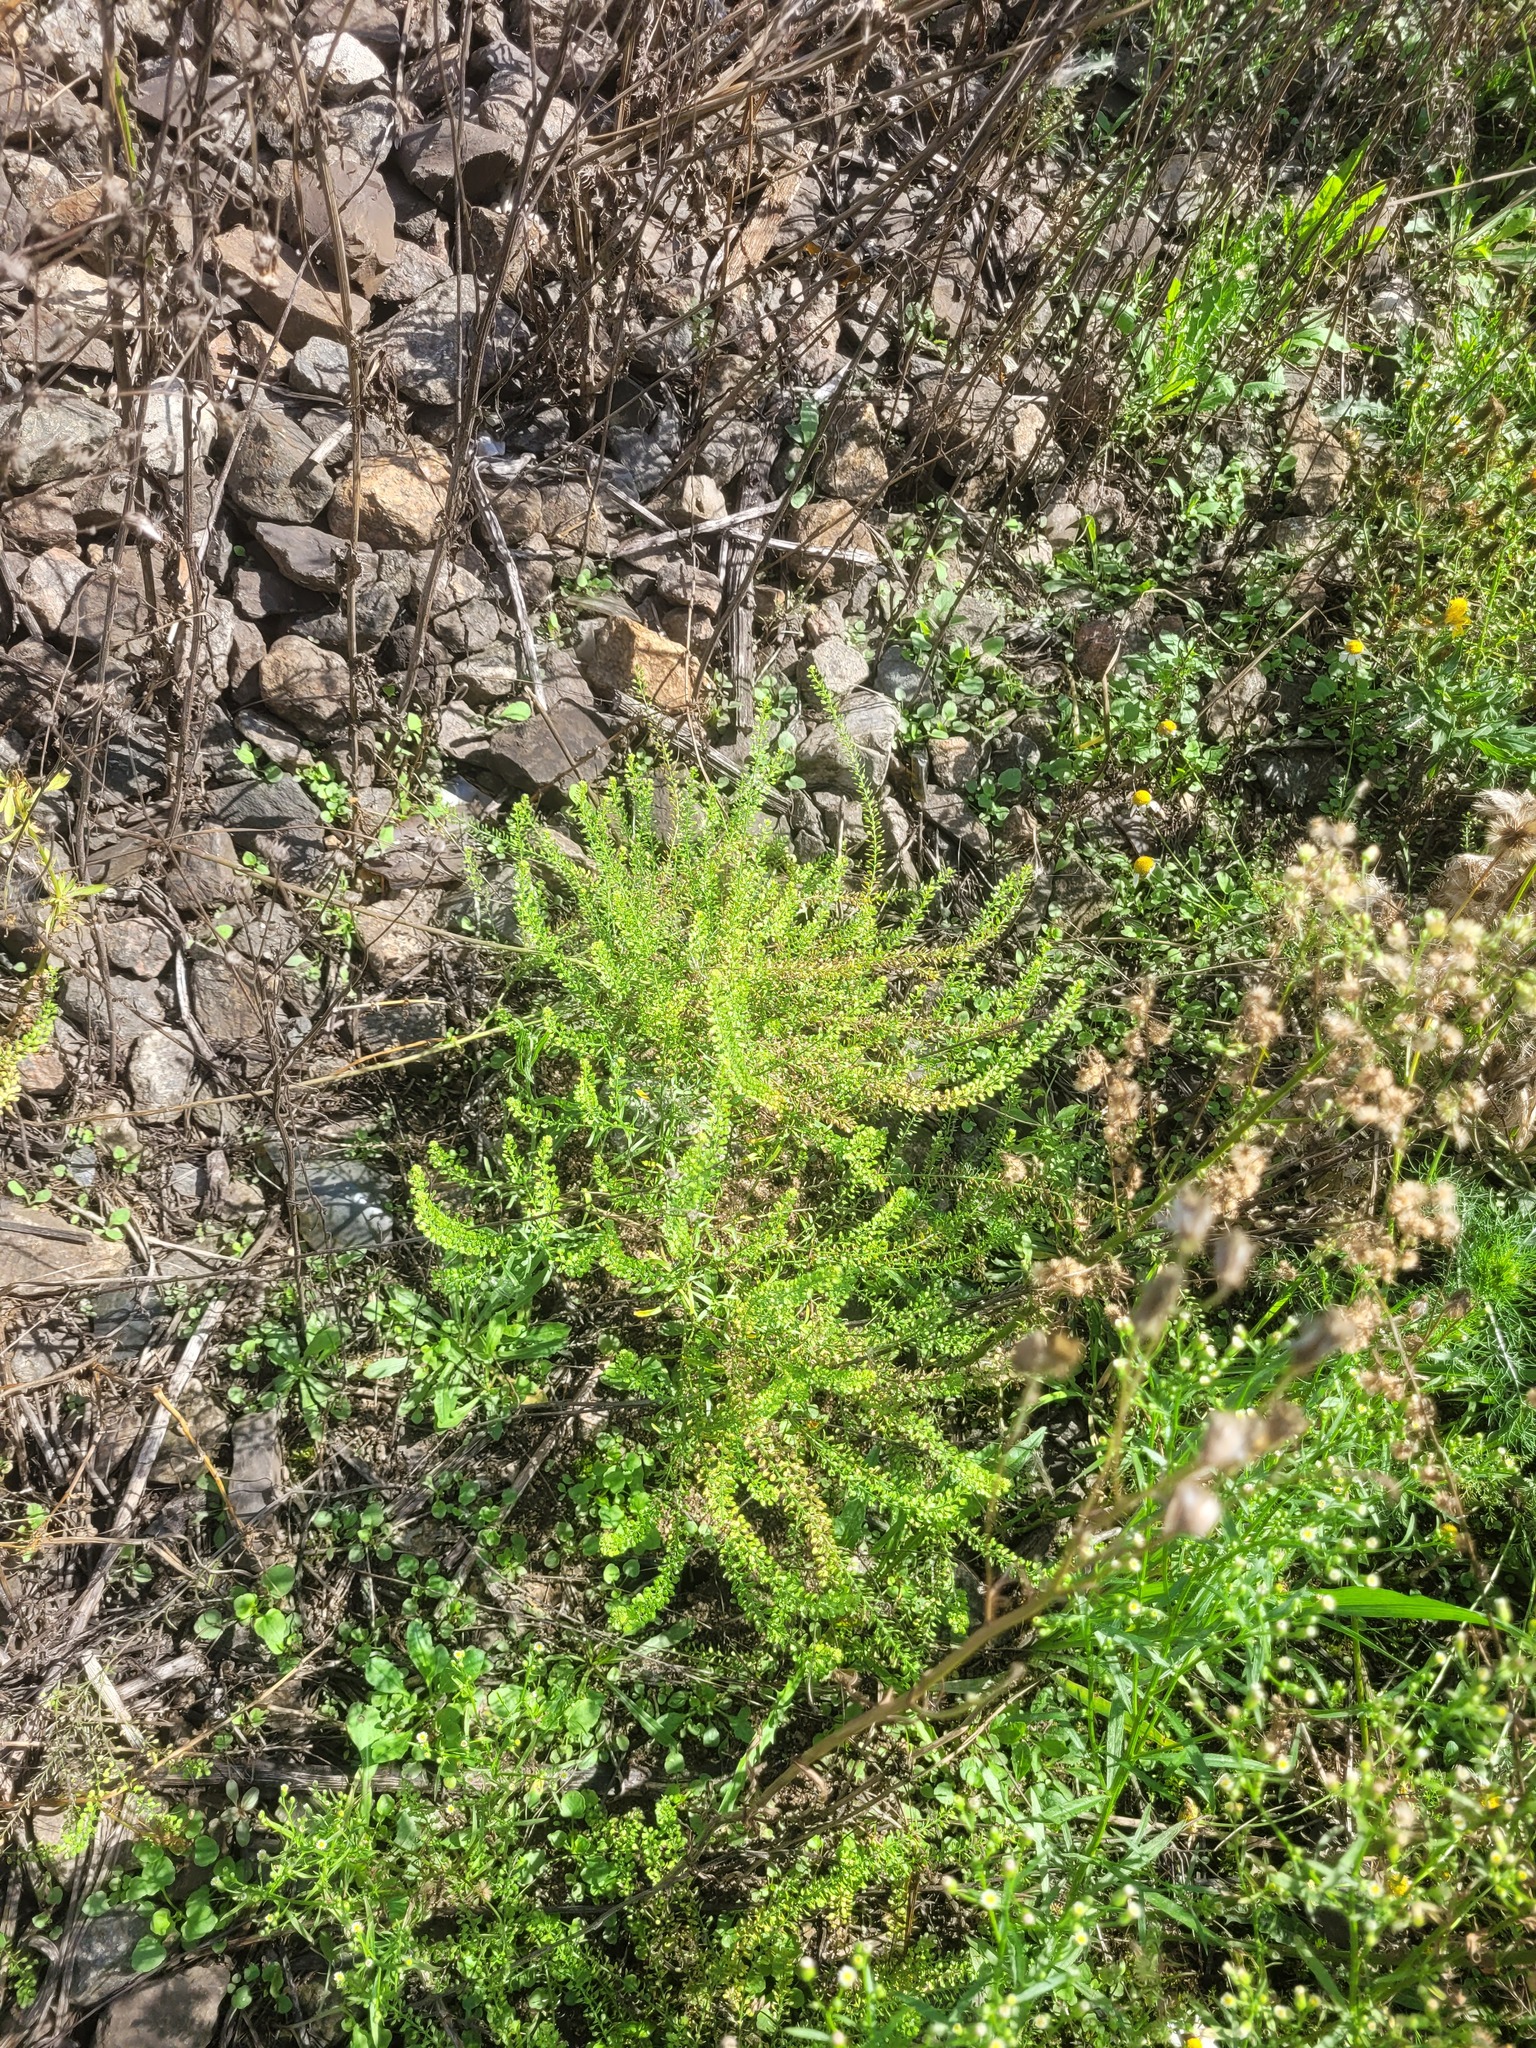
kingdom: Plantae
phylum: Tracheophyta
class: Magnoliopsida
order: Brassicales
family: Brassicaceae
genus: Lepidium
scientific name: Lepidium densiflorum
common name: Miner's pepperwort
